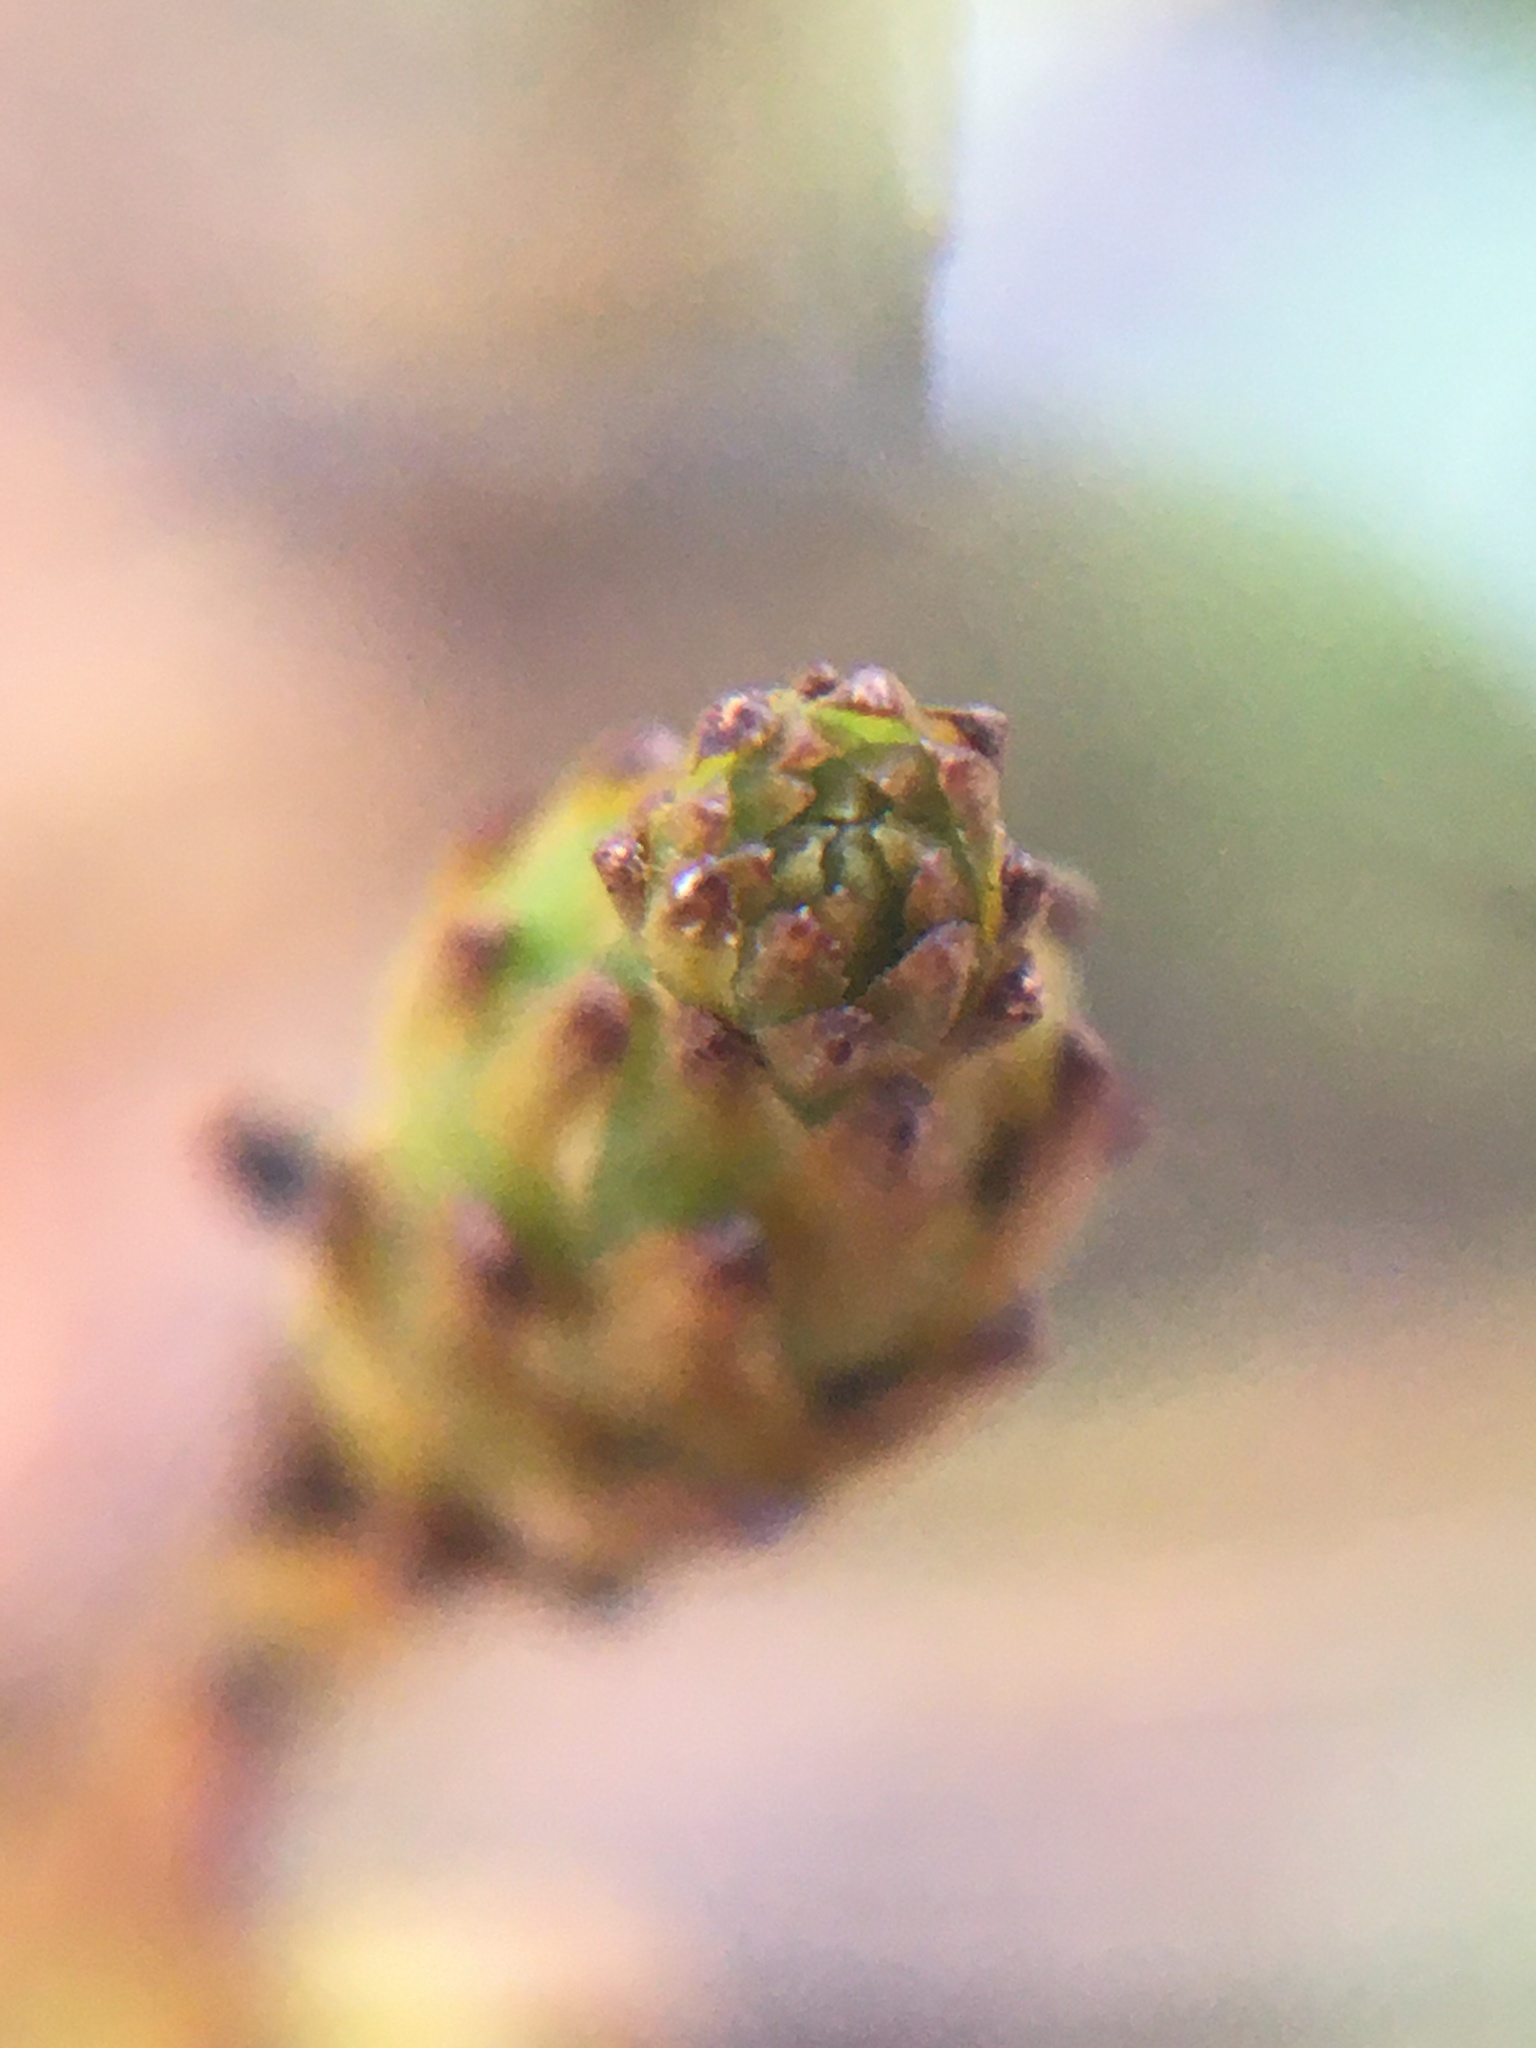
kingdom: Plantae
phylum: Tracheophyta
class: Magnoliopsida
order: Santalales
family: Thesiaceae
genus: Thesium
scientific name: Thesium aggregatum
